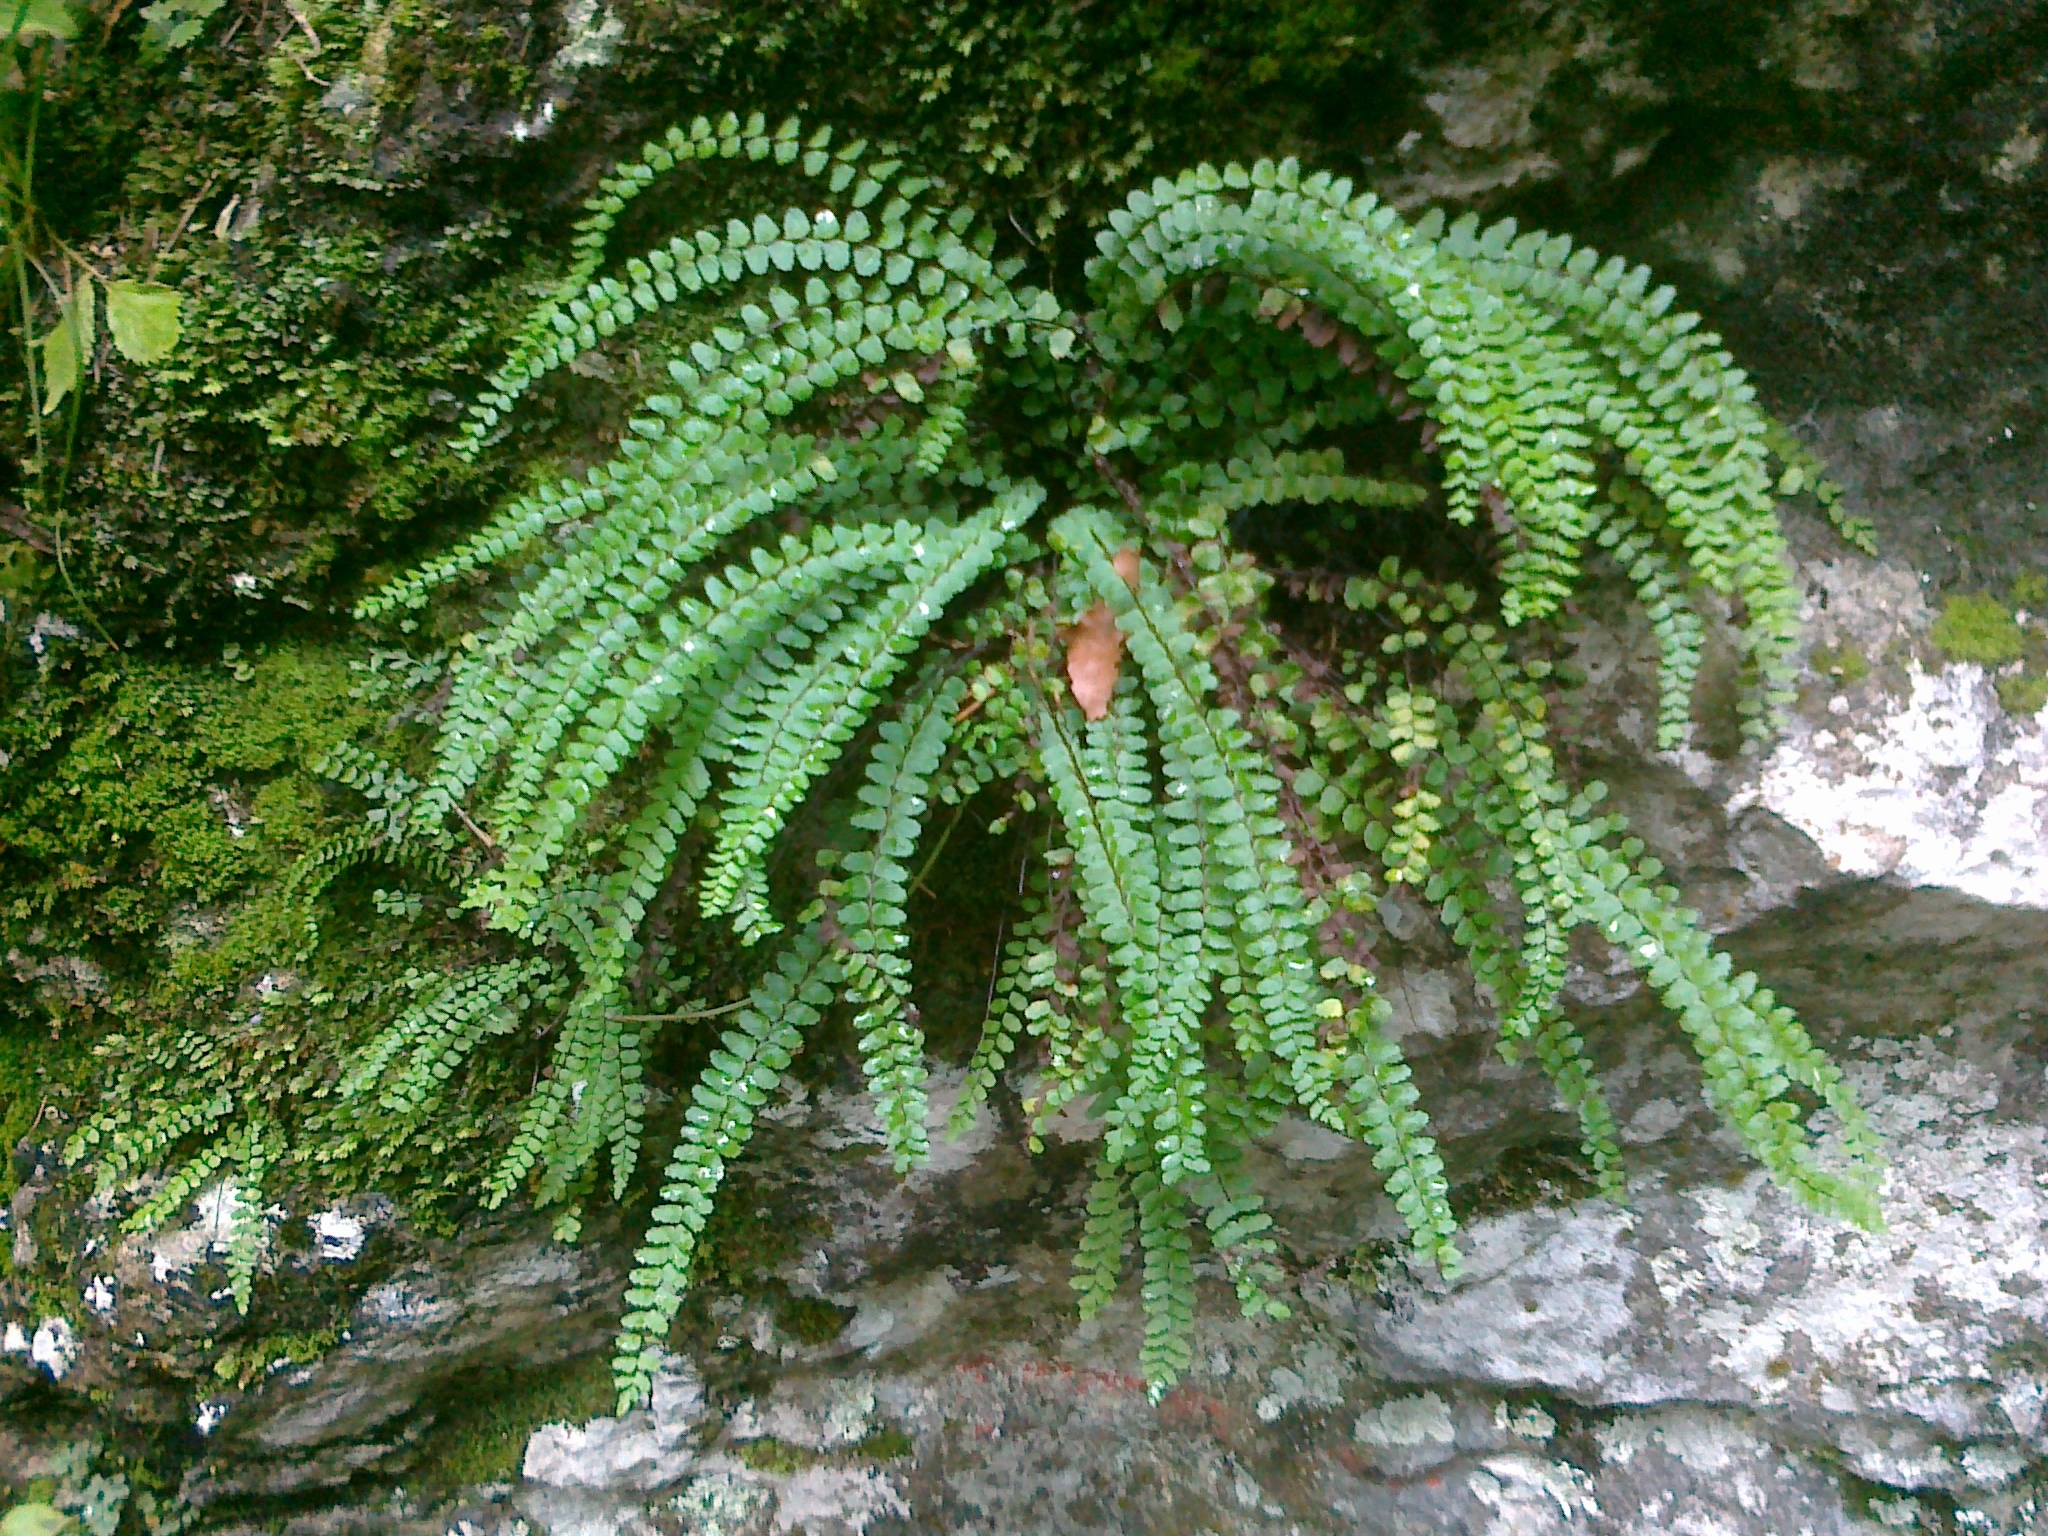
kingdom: Plantae
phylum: Tracheophyta
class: Polypodiopsida
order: Polypodiales
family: Aspleniaceae
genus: Asplenium
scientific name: Asplenium trichomanes
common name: Maidenhair spleenwort
